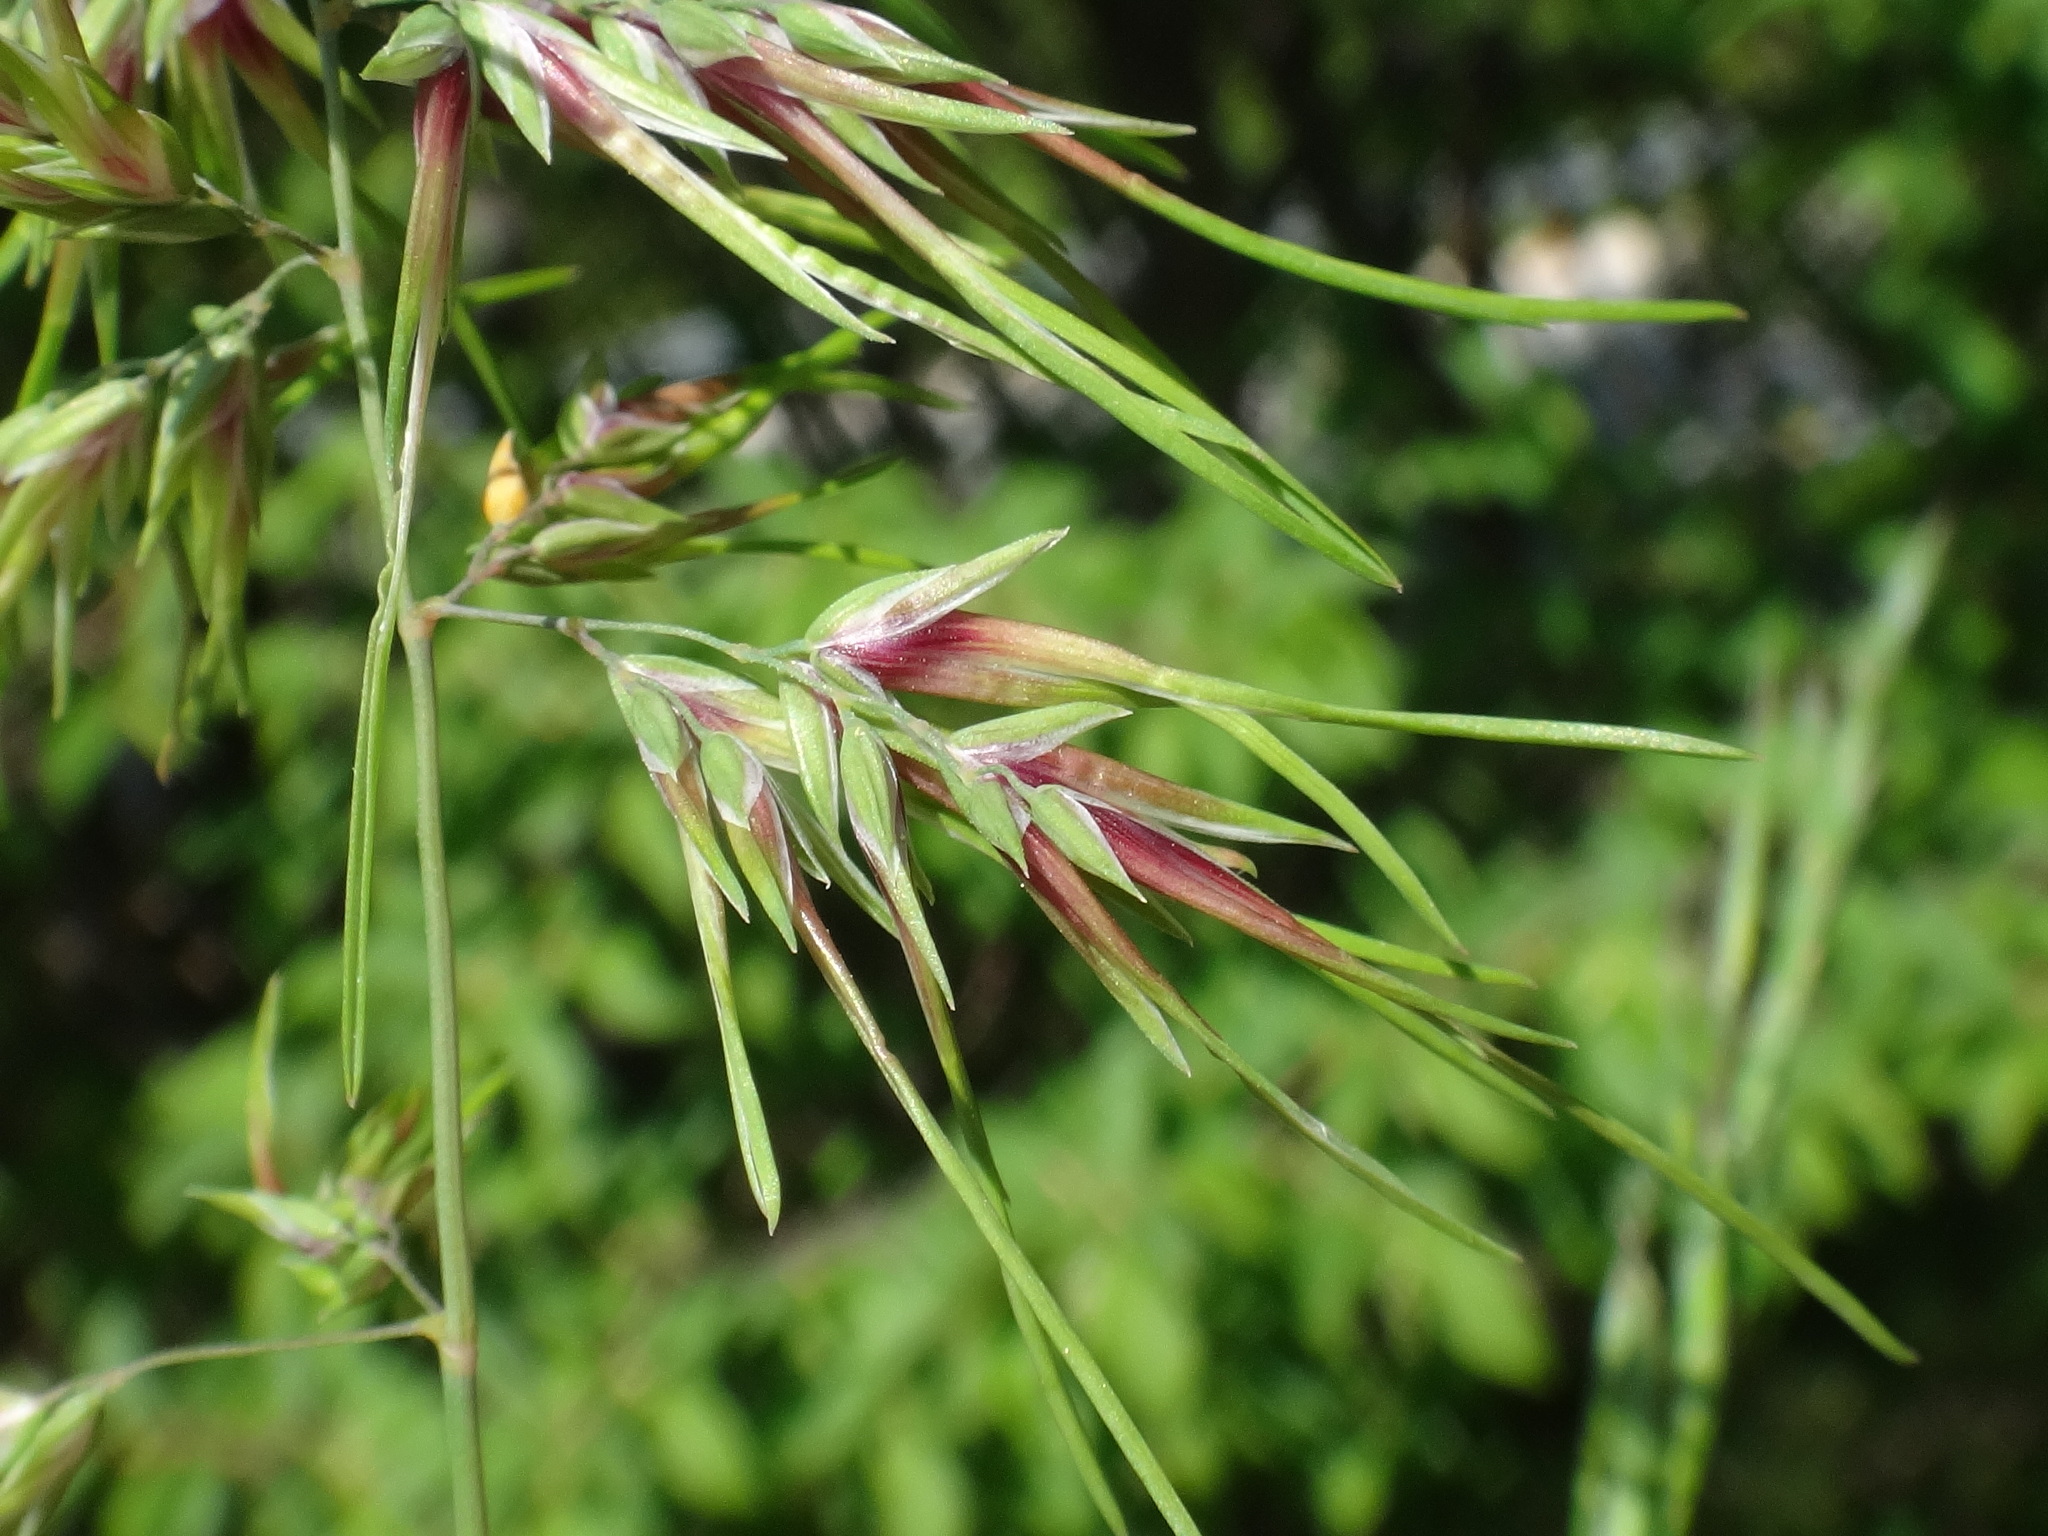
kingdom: Plantae
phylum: Tracheophyta
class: Liliopsida
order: Poales
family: Poaceae
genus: Poa
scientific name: Poa bulbosa
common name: Bulbous bluegrass
